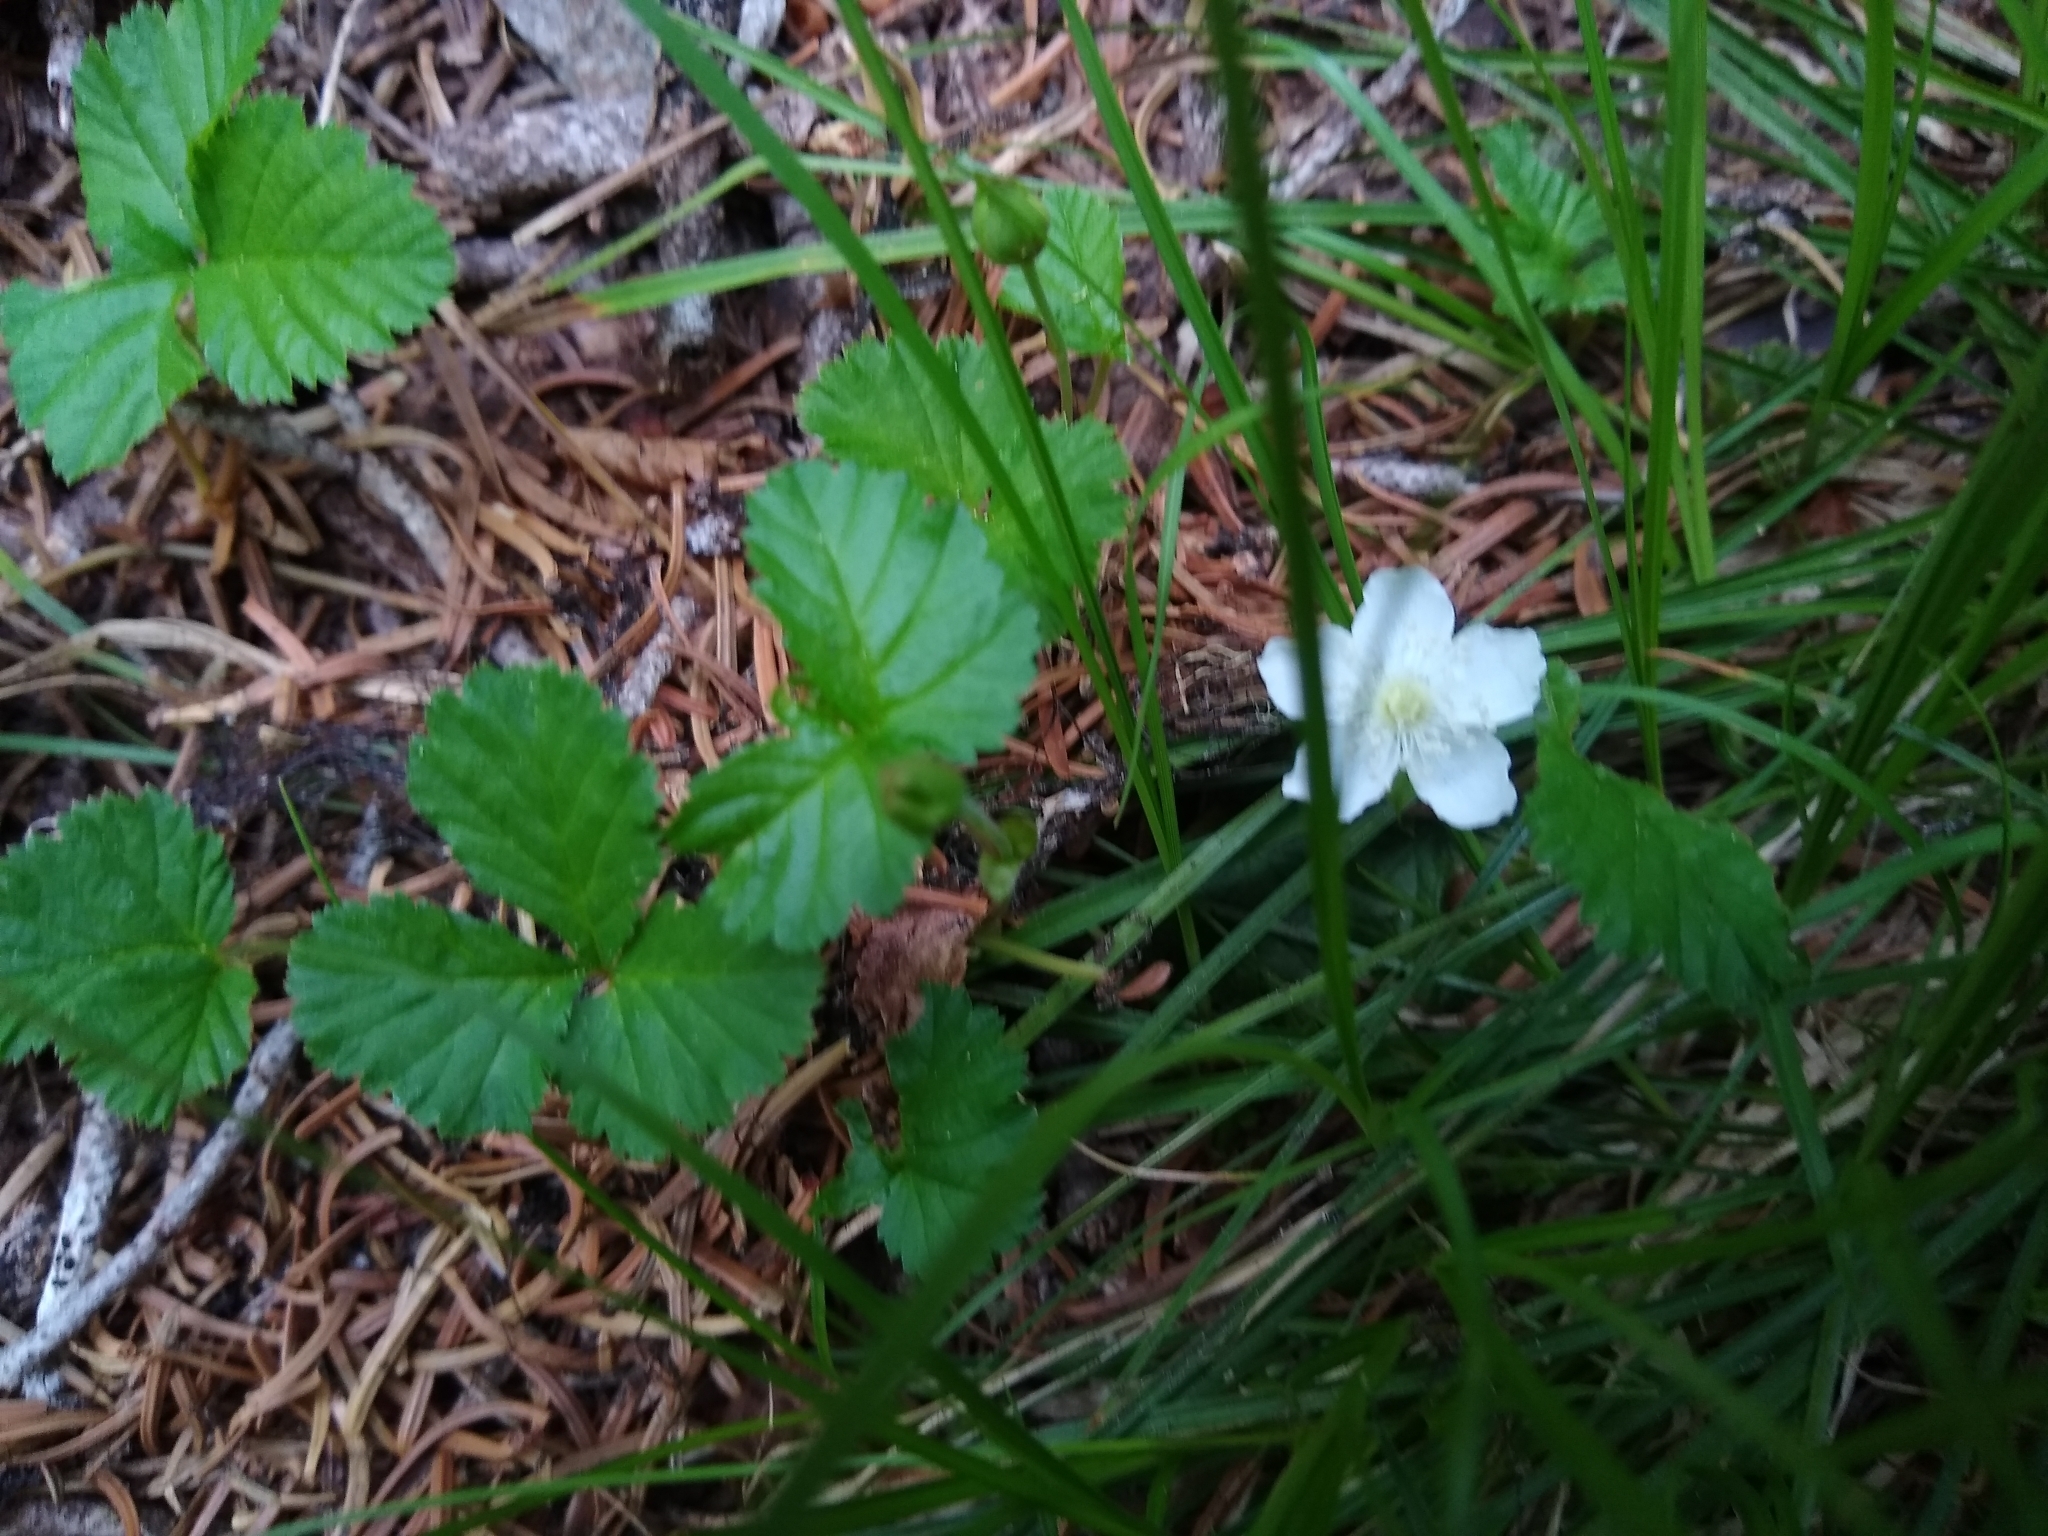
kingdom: Plantae
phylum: Tracheophyta
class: Magnoliopsida
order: Rosales
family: Rosaceae
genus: Rubus
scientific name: Rubus lasiococcus
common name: Dwarf bramble
